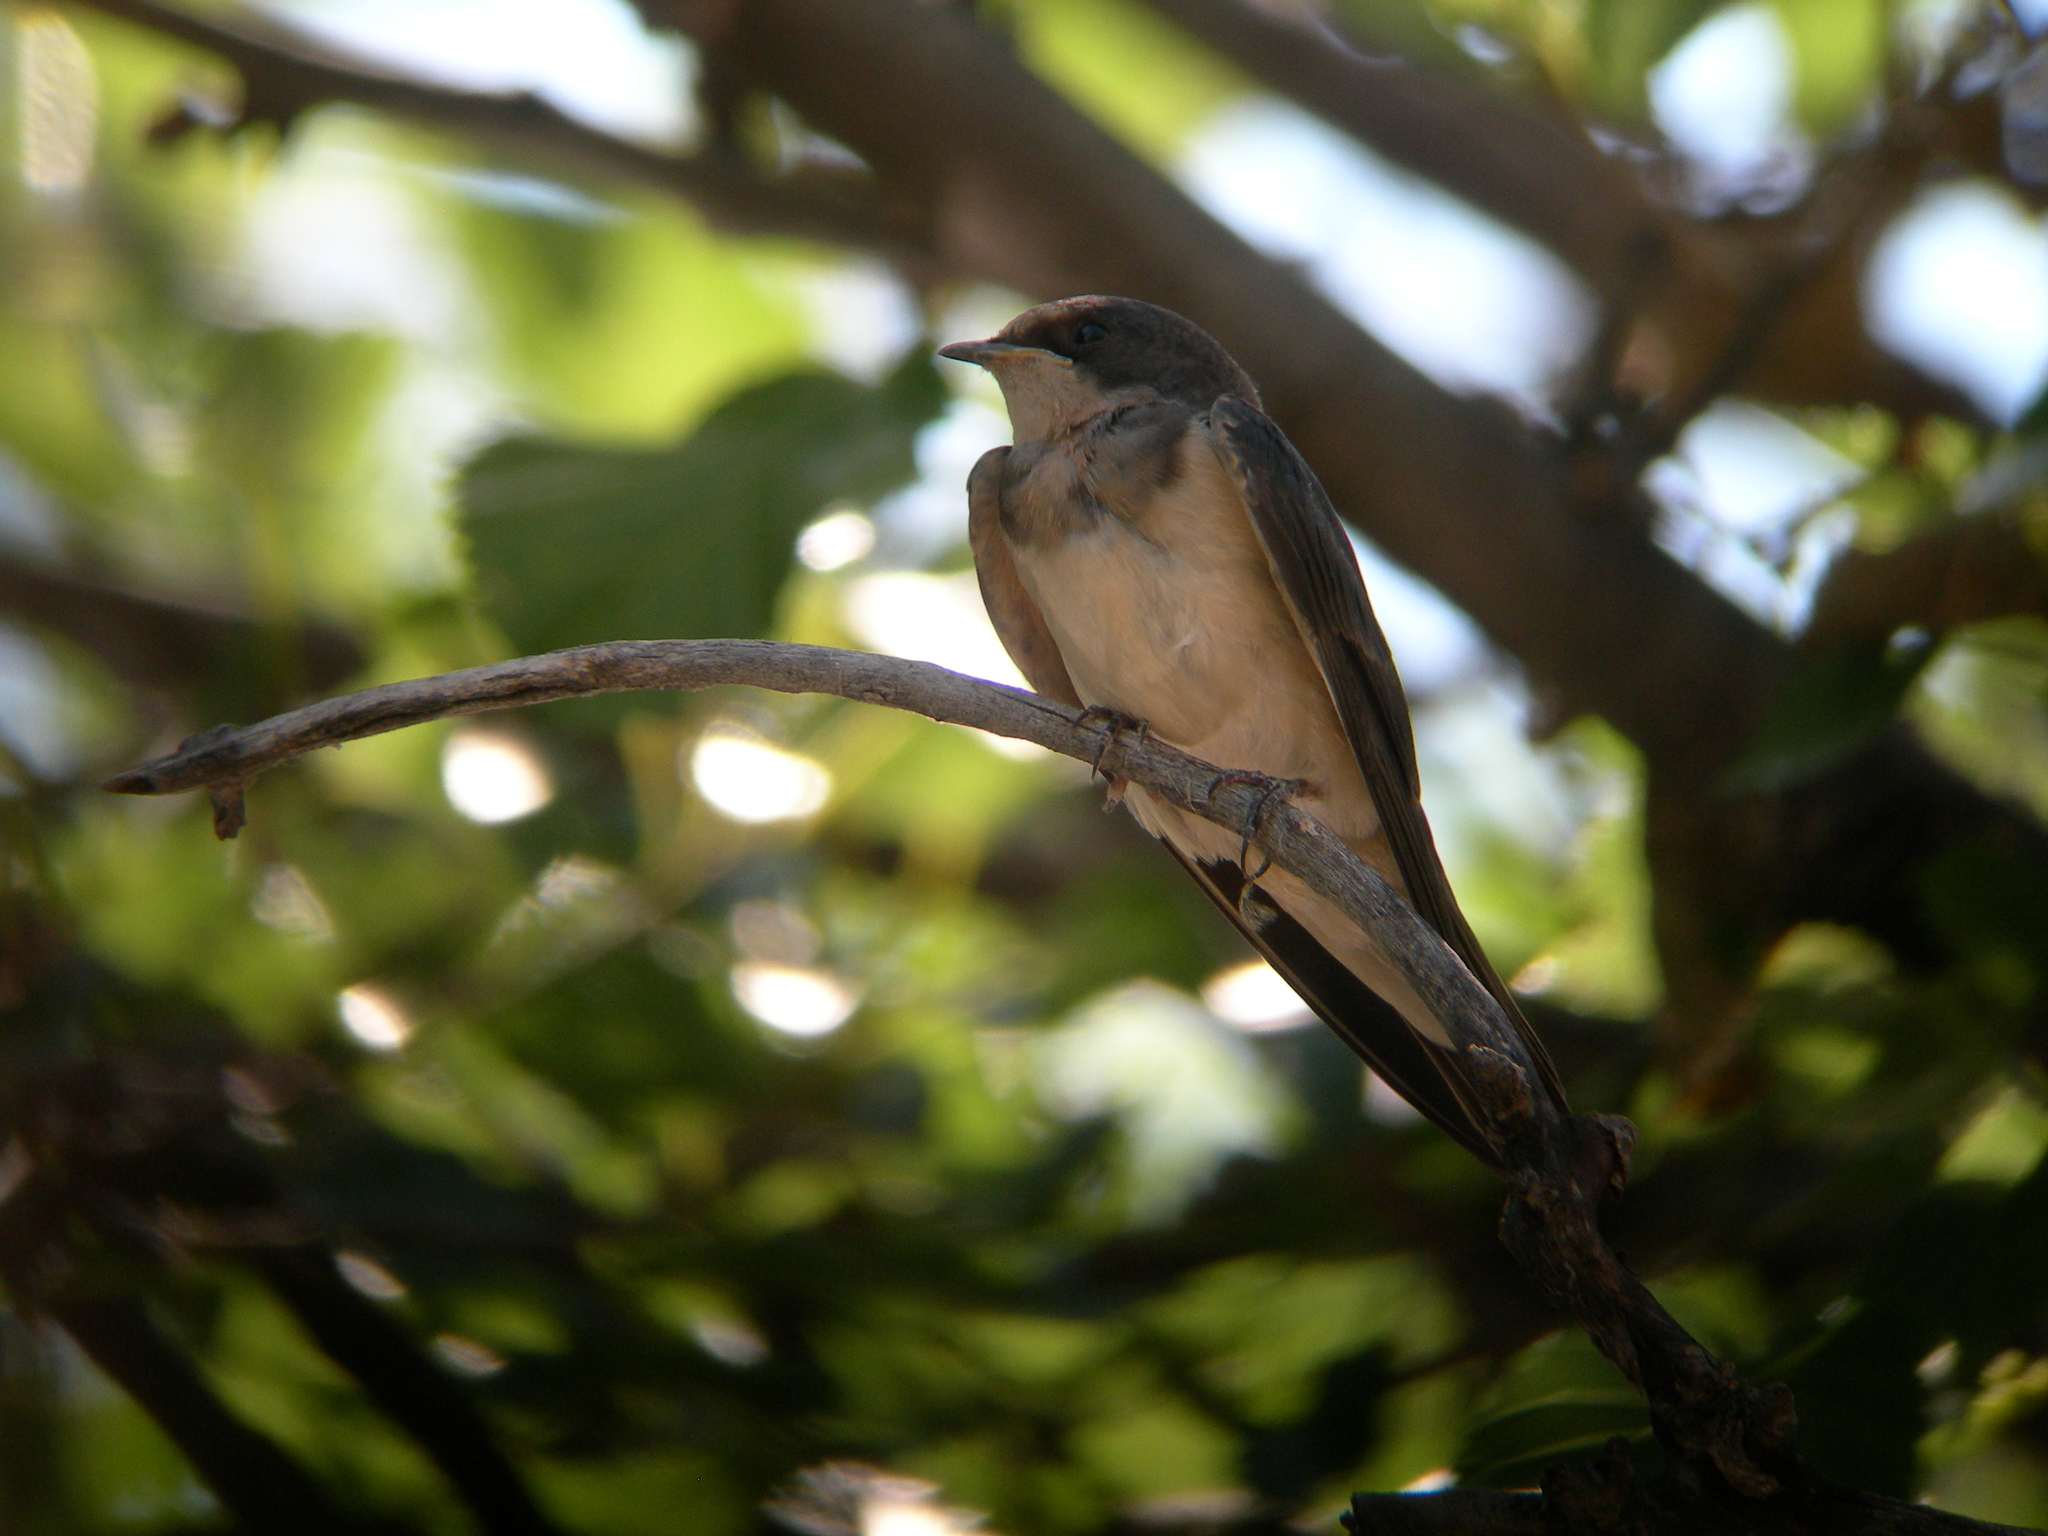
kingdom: Animalia
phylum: Chordata
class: Aves
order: Passeriformes
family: Hirundinidae
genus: Hirundo
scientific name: Hirundo rustica
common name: Barn swallow
